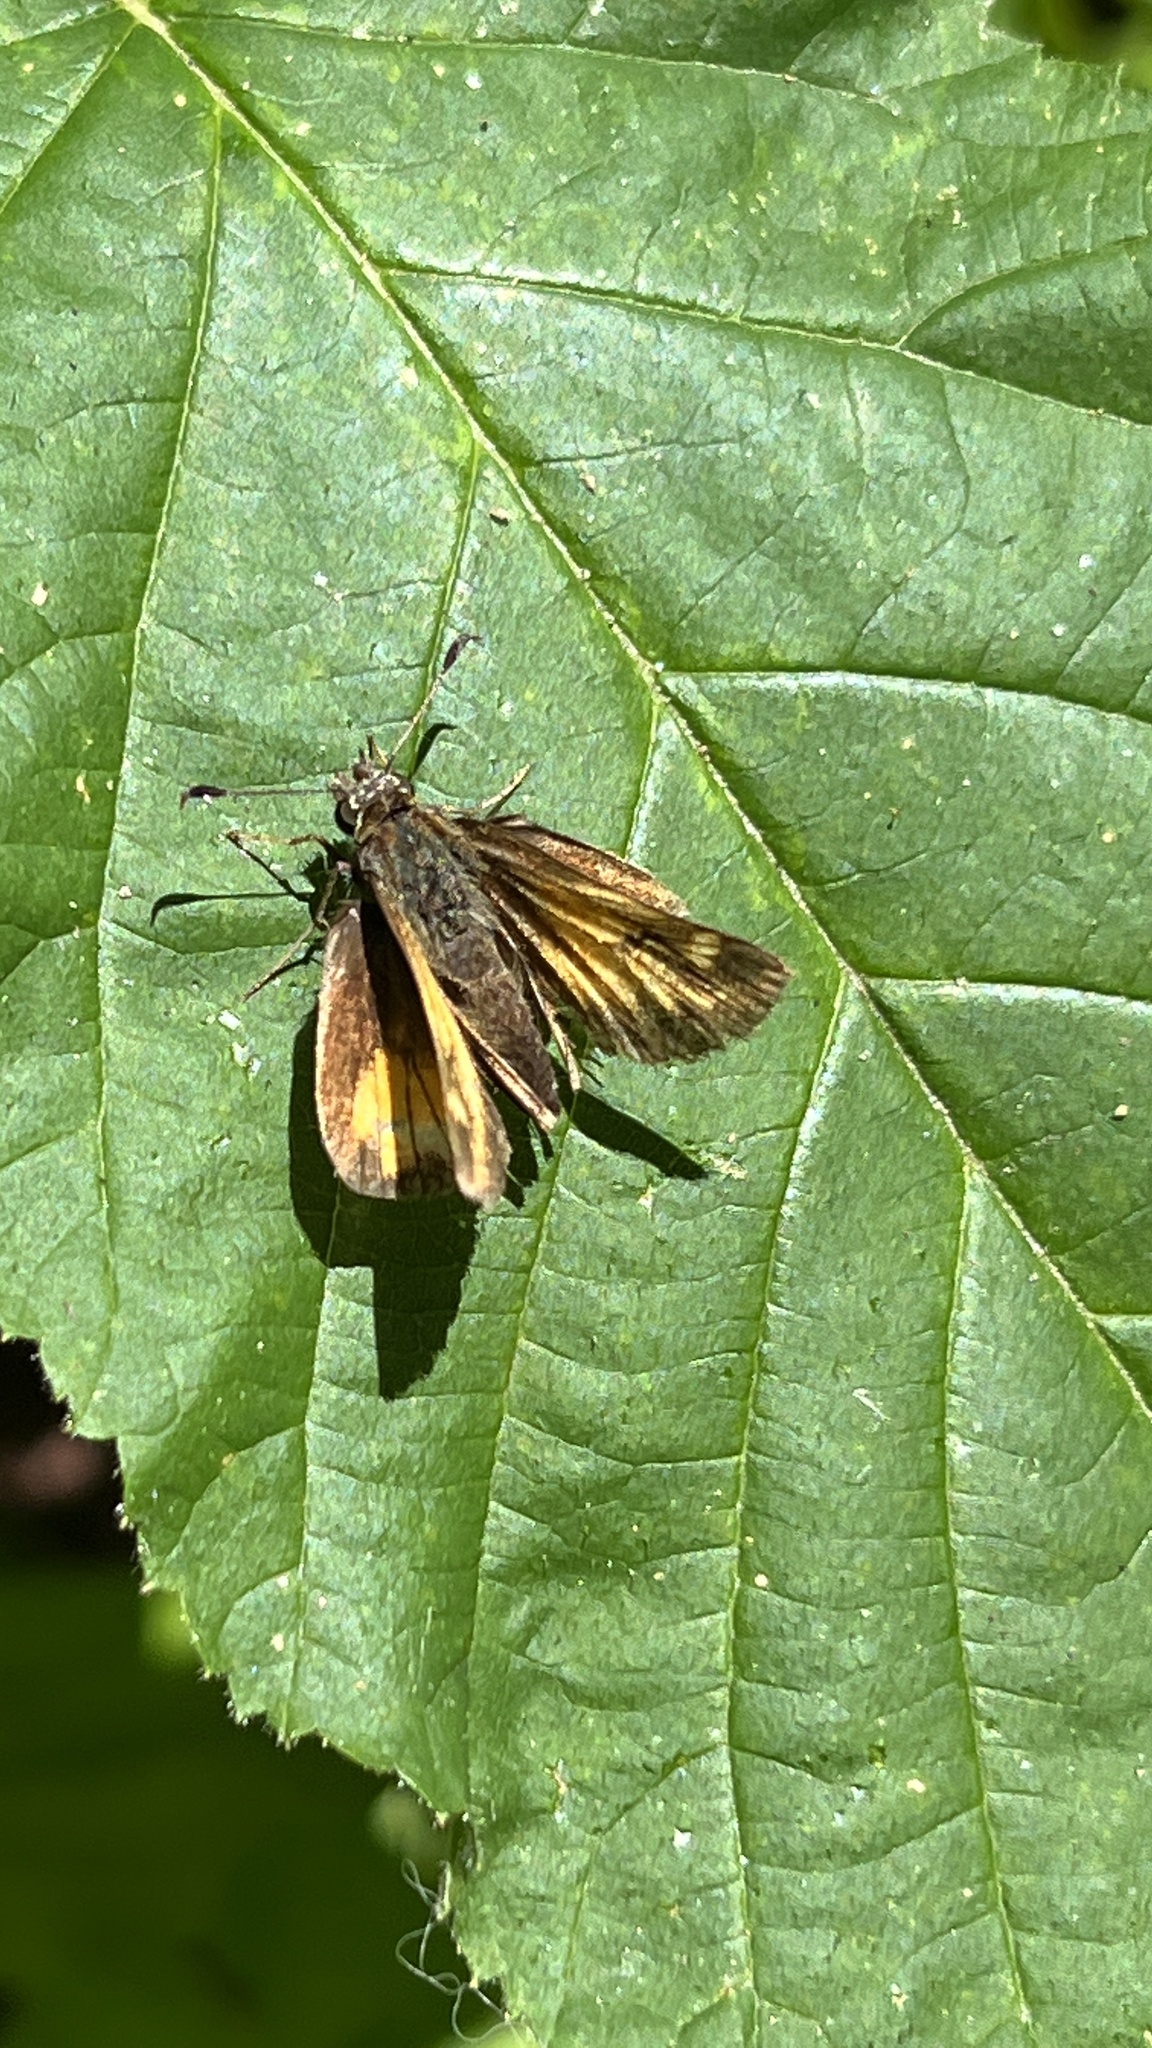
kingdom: Animalia
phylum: Arthropoda
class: Insecta
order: Lepidoptera
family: Hesperiidae
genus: Lon
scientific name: Lon hobomok
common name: Hobomok skipper
